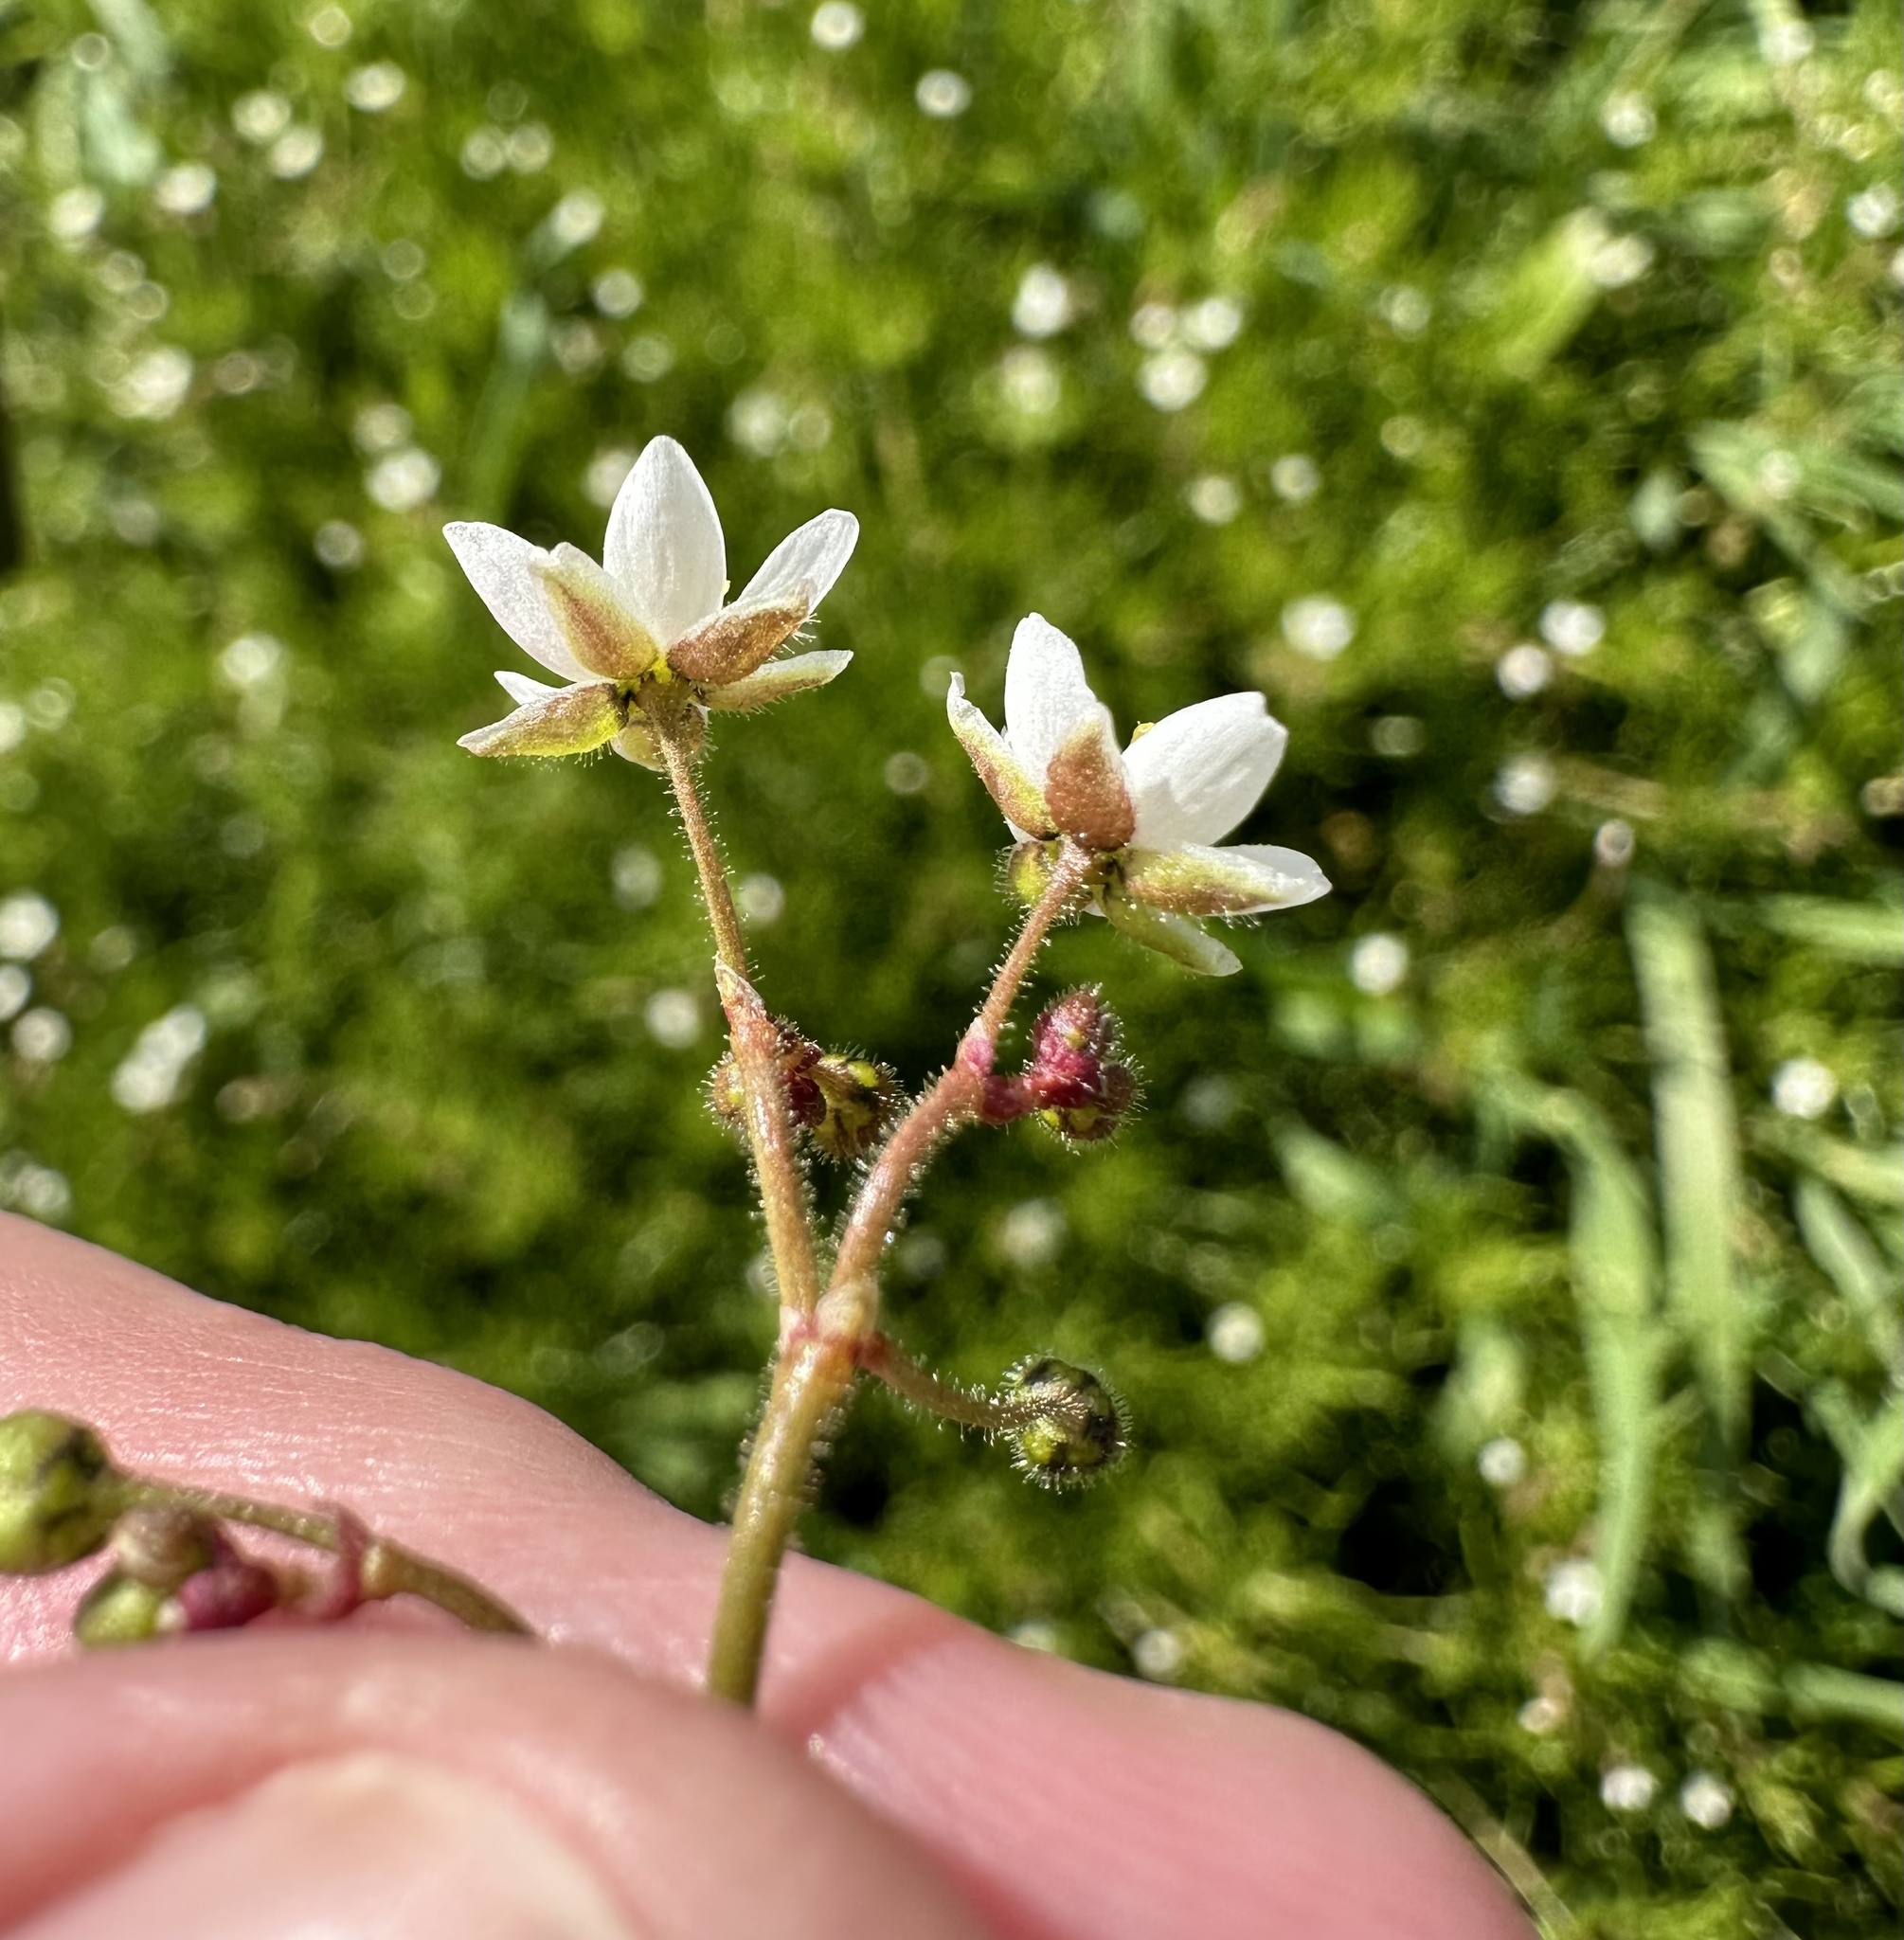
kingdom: Plantae
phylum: Tracheophyta
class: Magnoliopsida
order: Caryophyllales
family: Caryophyllaceae
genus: Spergula
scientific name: Spergula arvensis
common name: Corn spurrey
